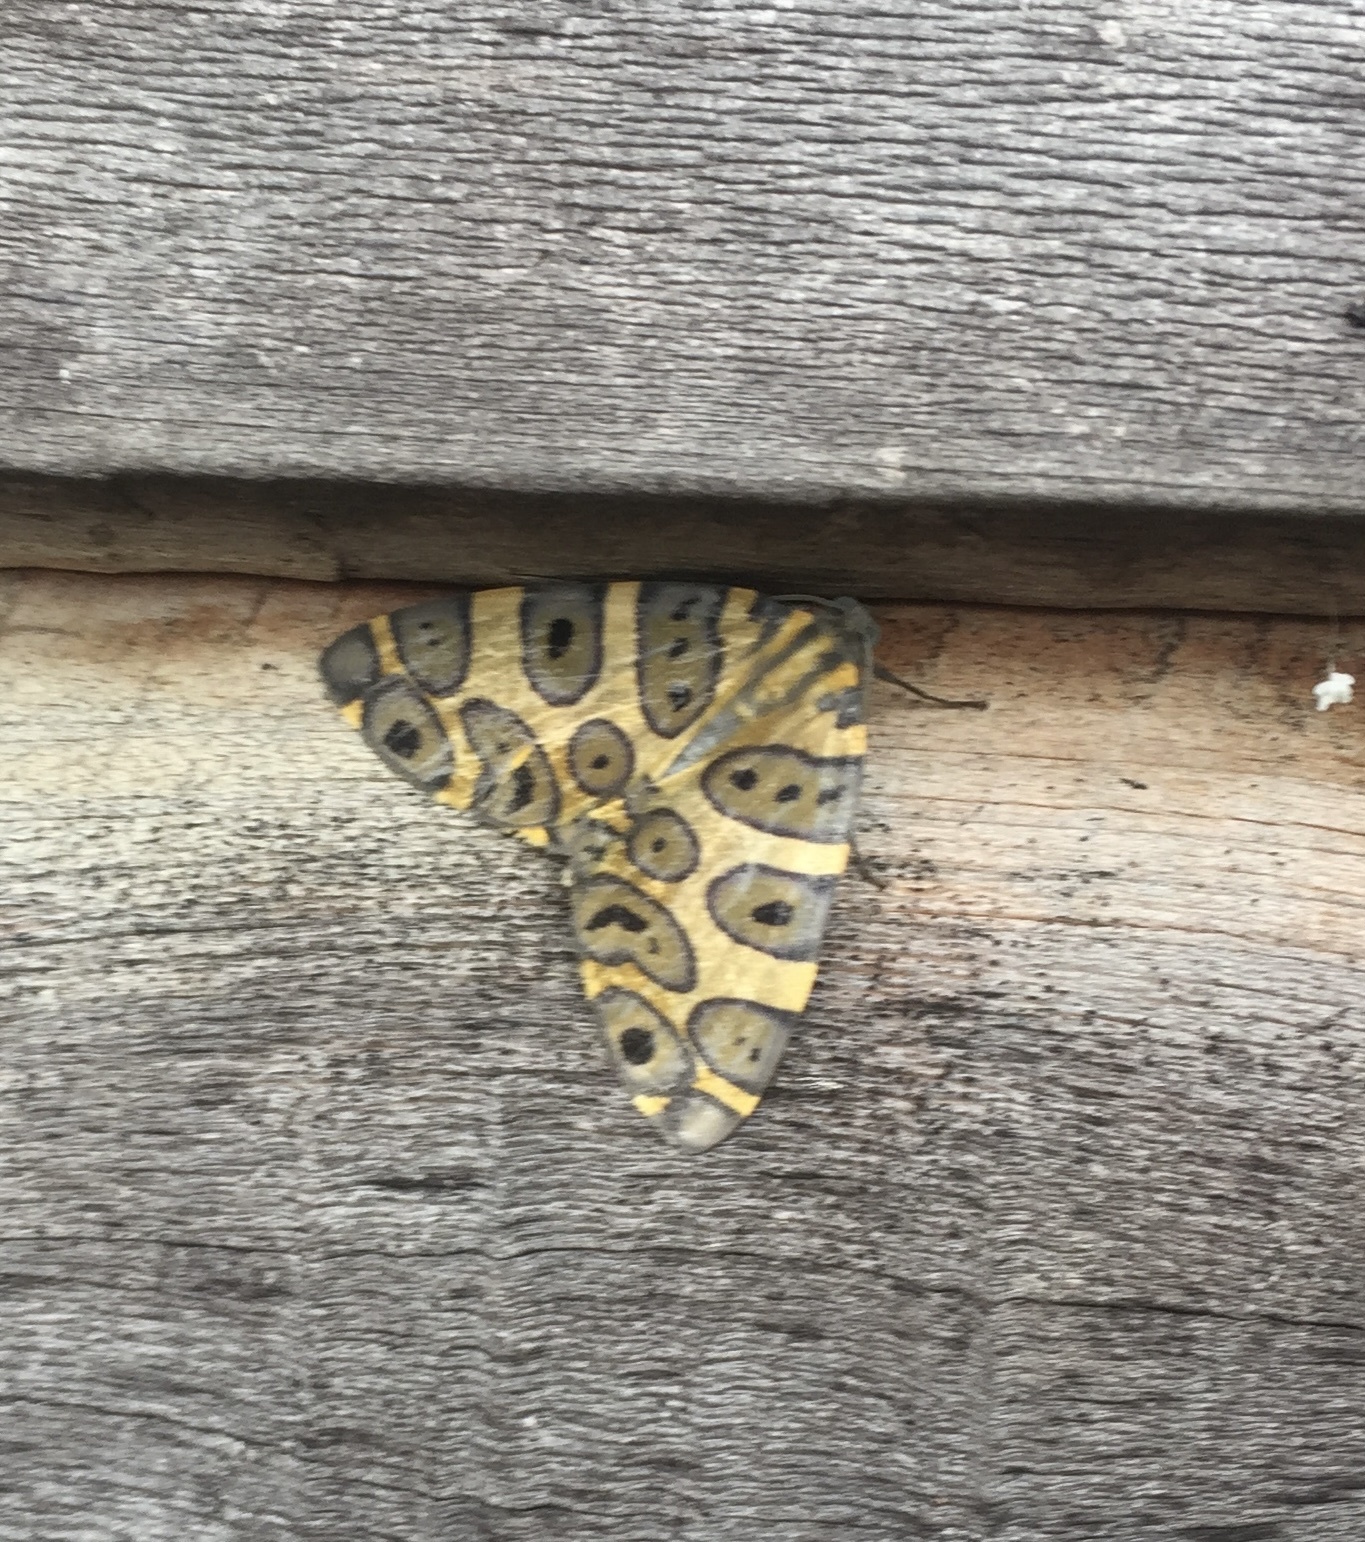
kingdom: Animalia
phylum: Arthropoda
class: Insecta
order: Lepidoptera
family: Geometridae
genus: Pantherodes
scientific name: Pantherodes pardalaria
